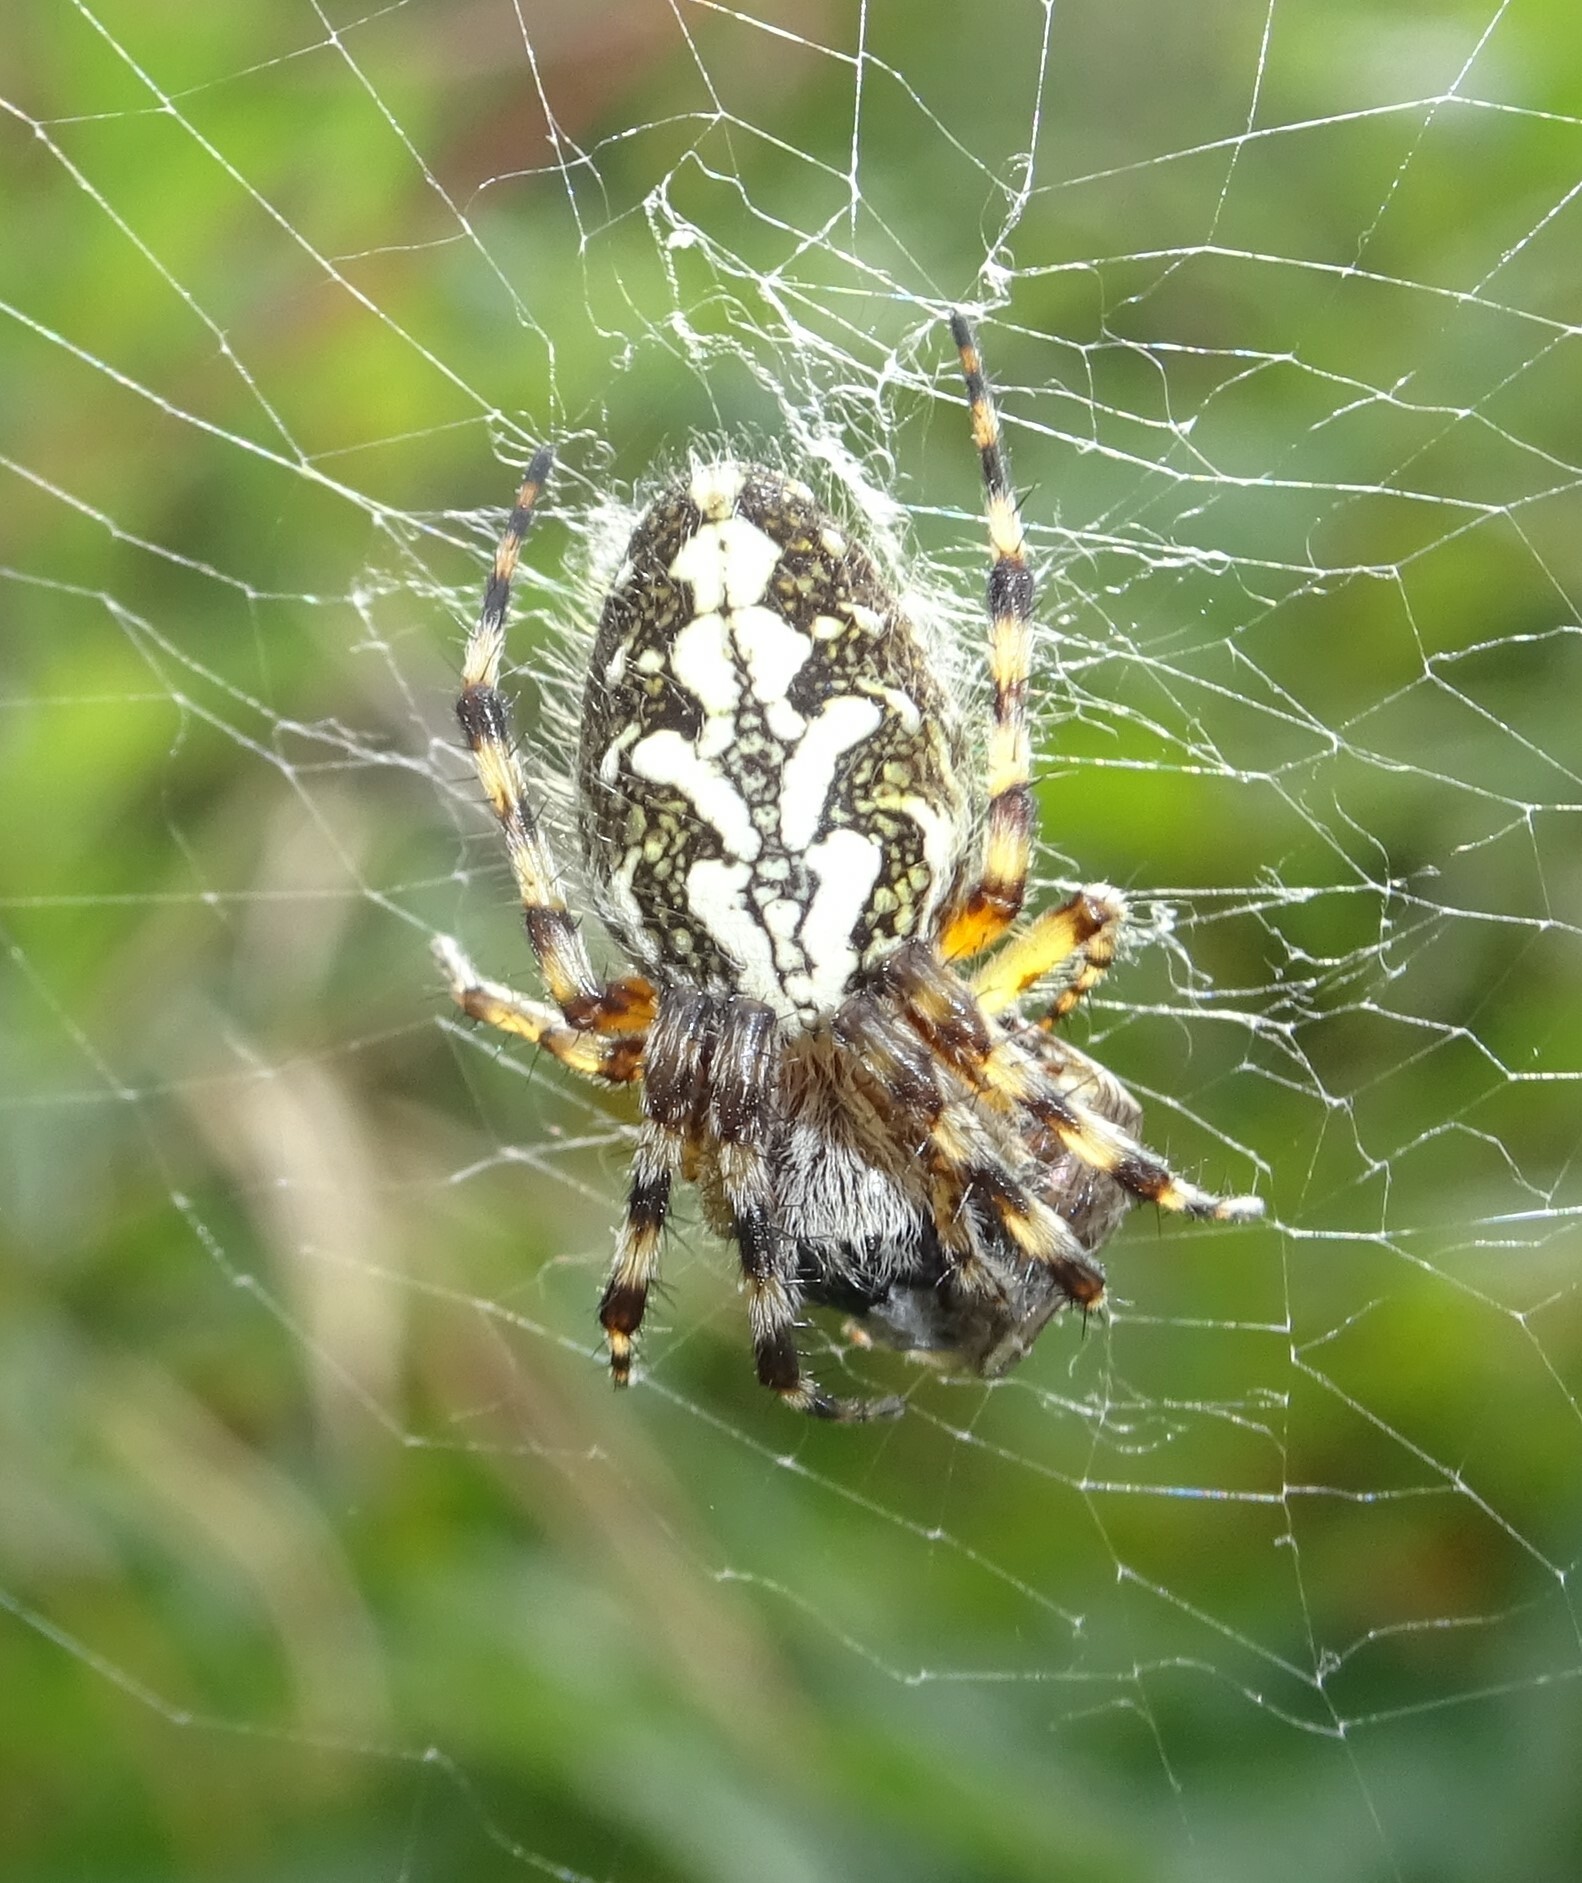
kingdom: Animalia
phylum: Arthropoda
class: Arachnida
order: Araneae
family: Araneidae
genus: Aculepeira
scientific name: Aculepeira ceropegia
